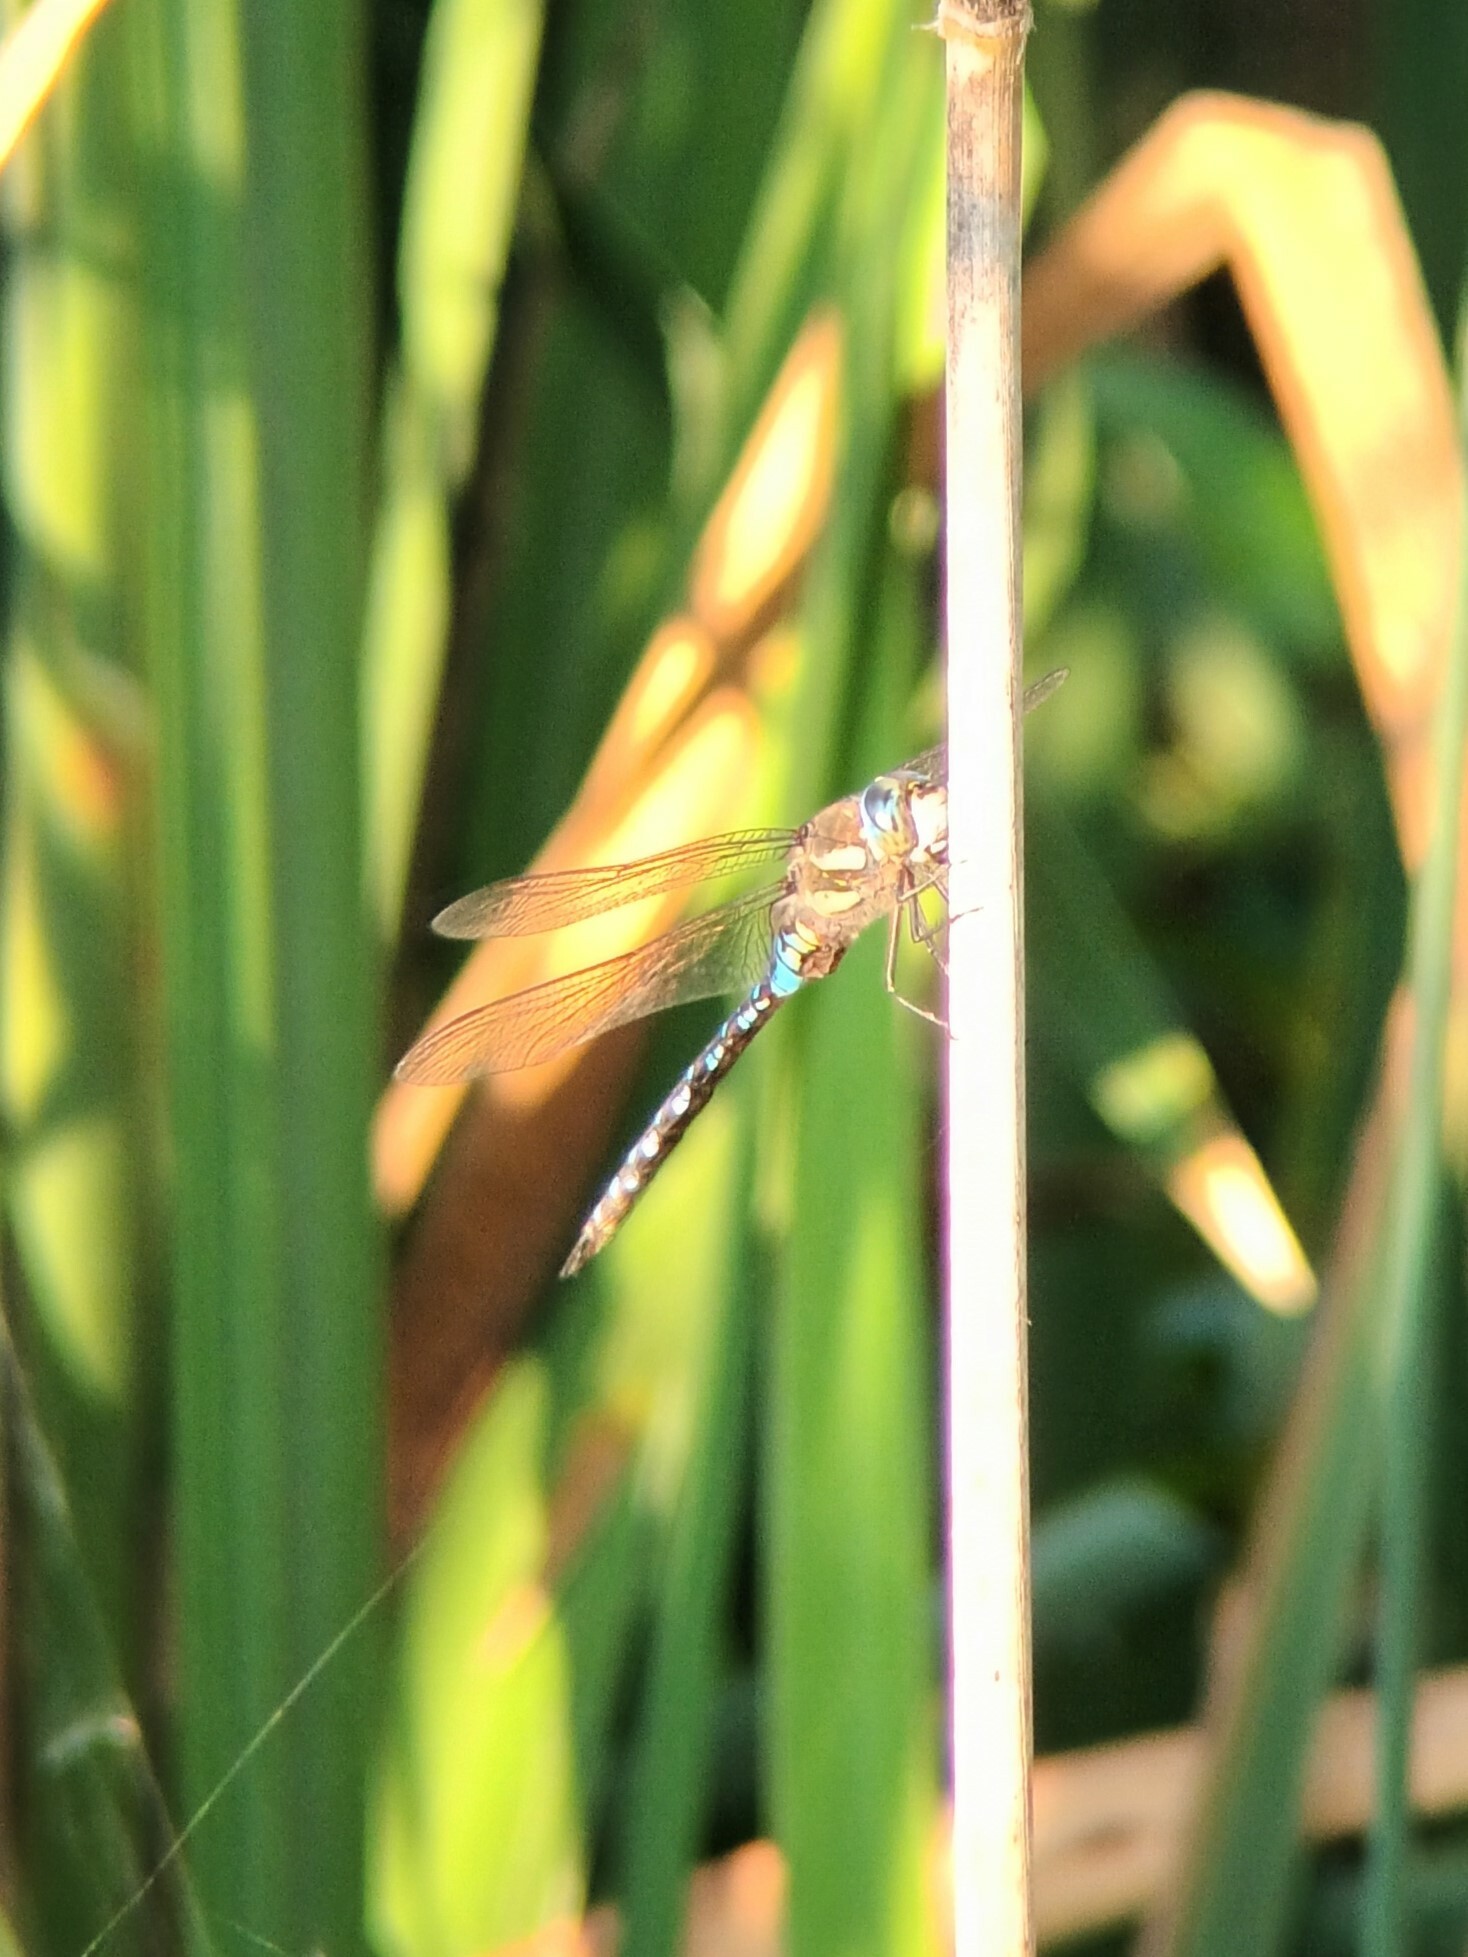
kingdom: Animalia
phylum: Arthropoda
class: Insecta
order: Odonata
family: Aeshnidae
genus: Aeshna
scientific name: Aeshna mixta
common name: Migrant hawker
